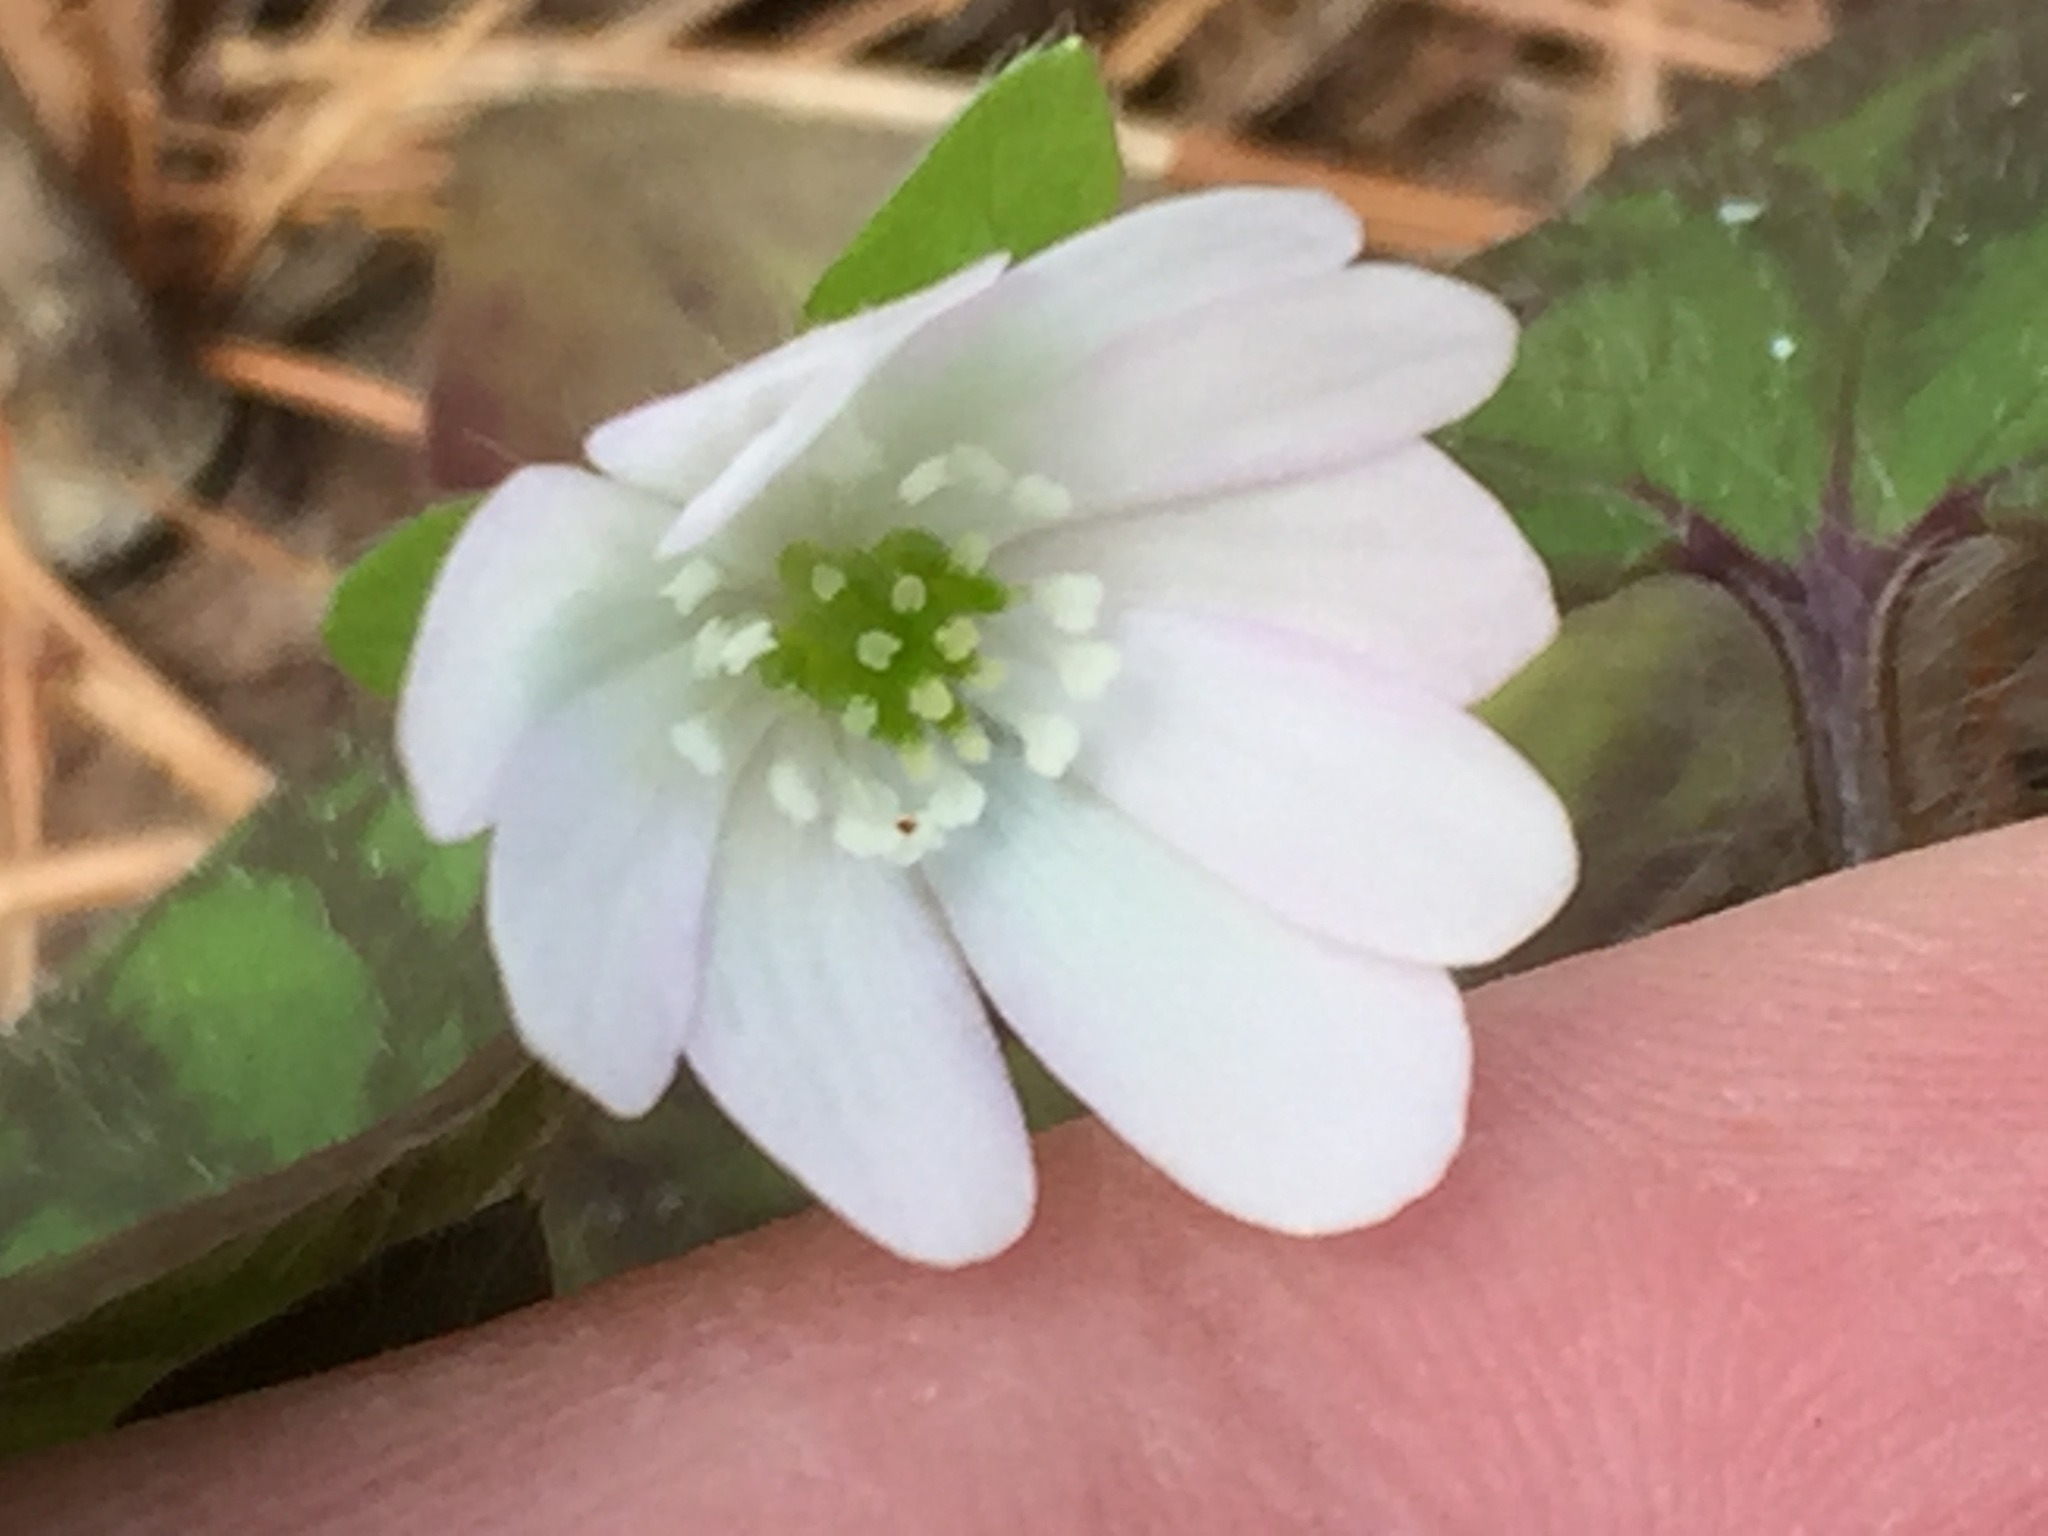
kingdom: Plantae
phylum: Tracheophyta
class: Magnoliopsida
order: Ranunculales
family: Ranunculaceae
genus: Hepatica
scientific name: Hepatica acutiloba
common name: Sharp-lobed hepatica
